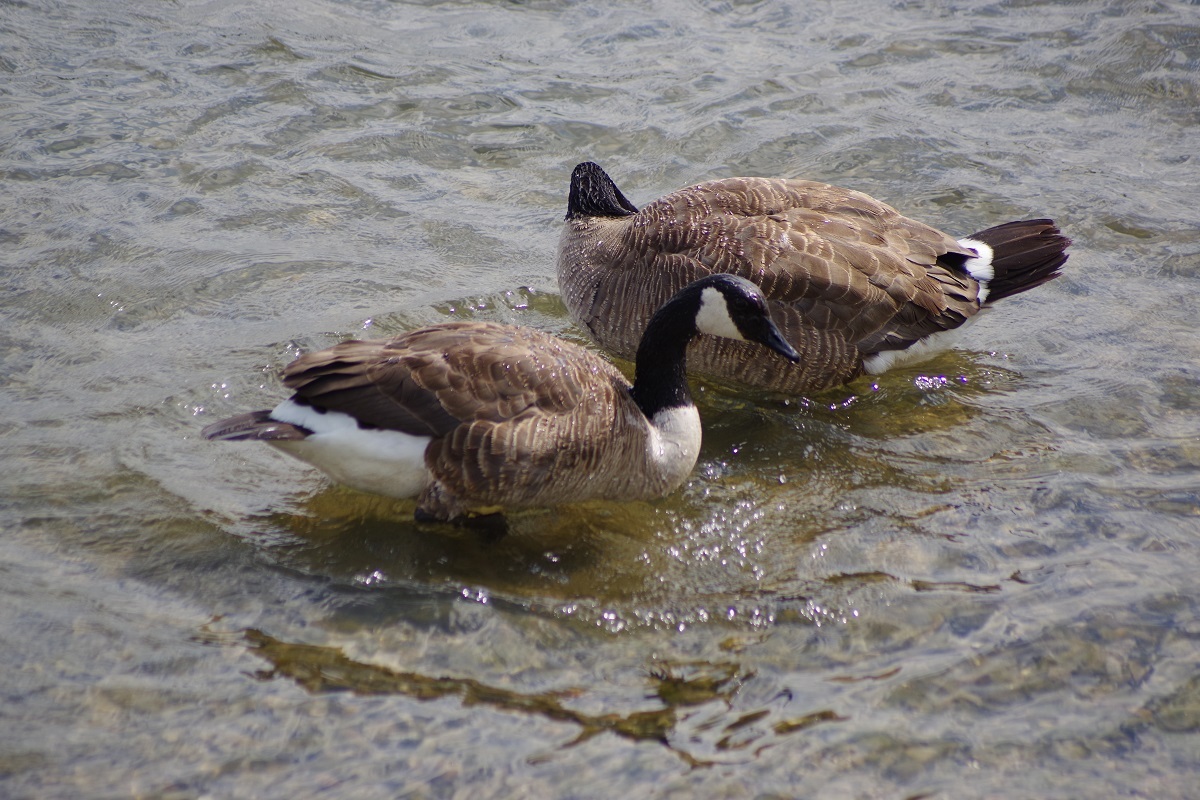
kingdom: Animalia
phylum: Chordata
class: Aves
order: Anseriformes
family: Anatidae
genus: Branta
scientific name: Branta canadensis
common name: Canada goose
